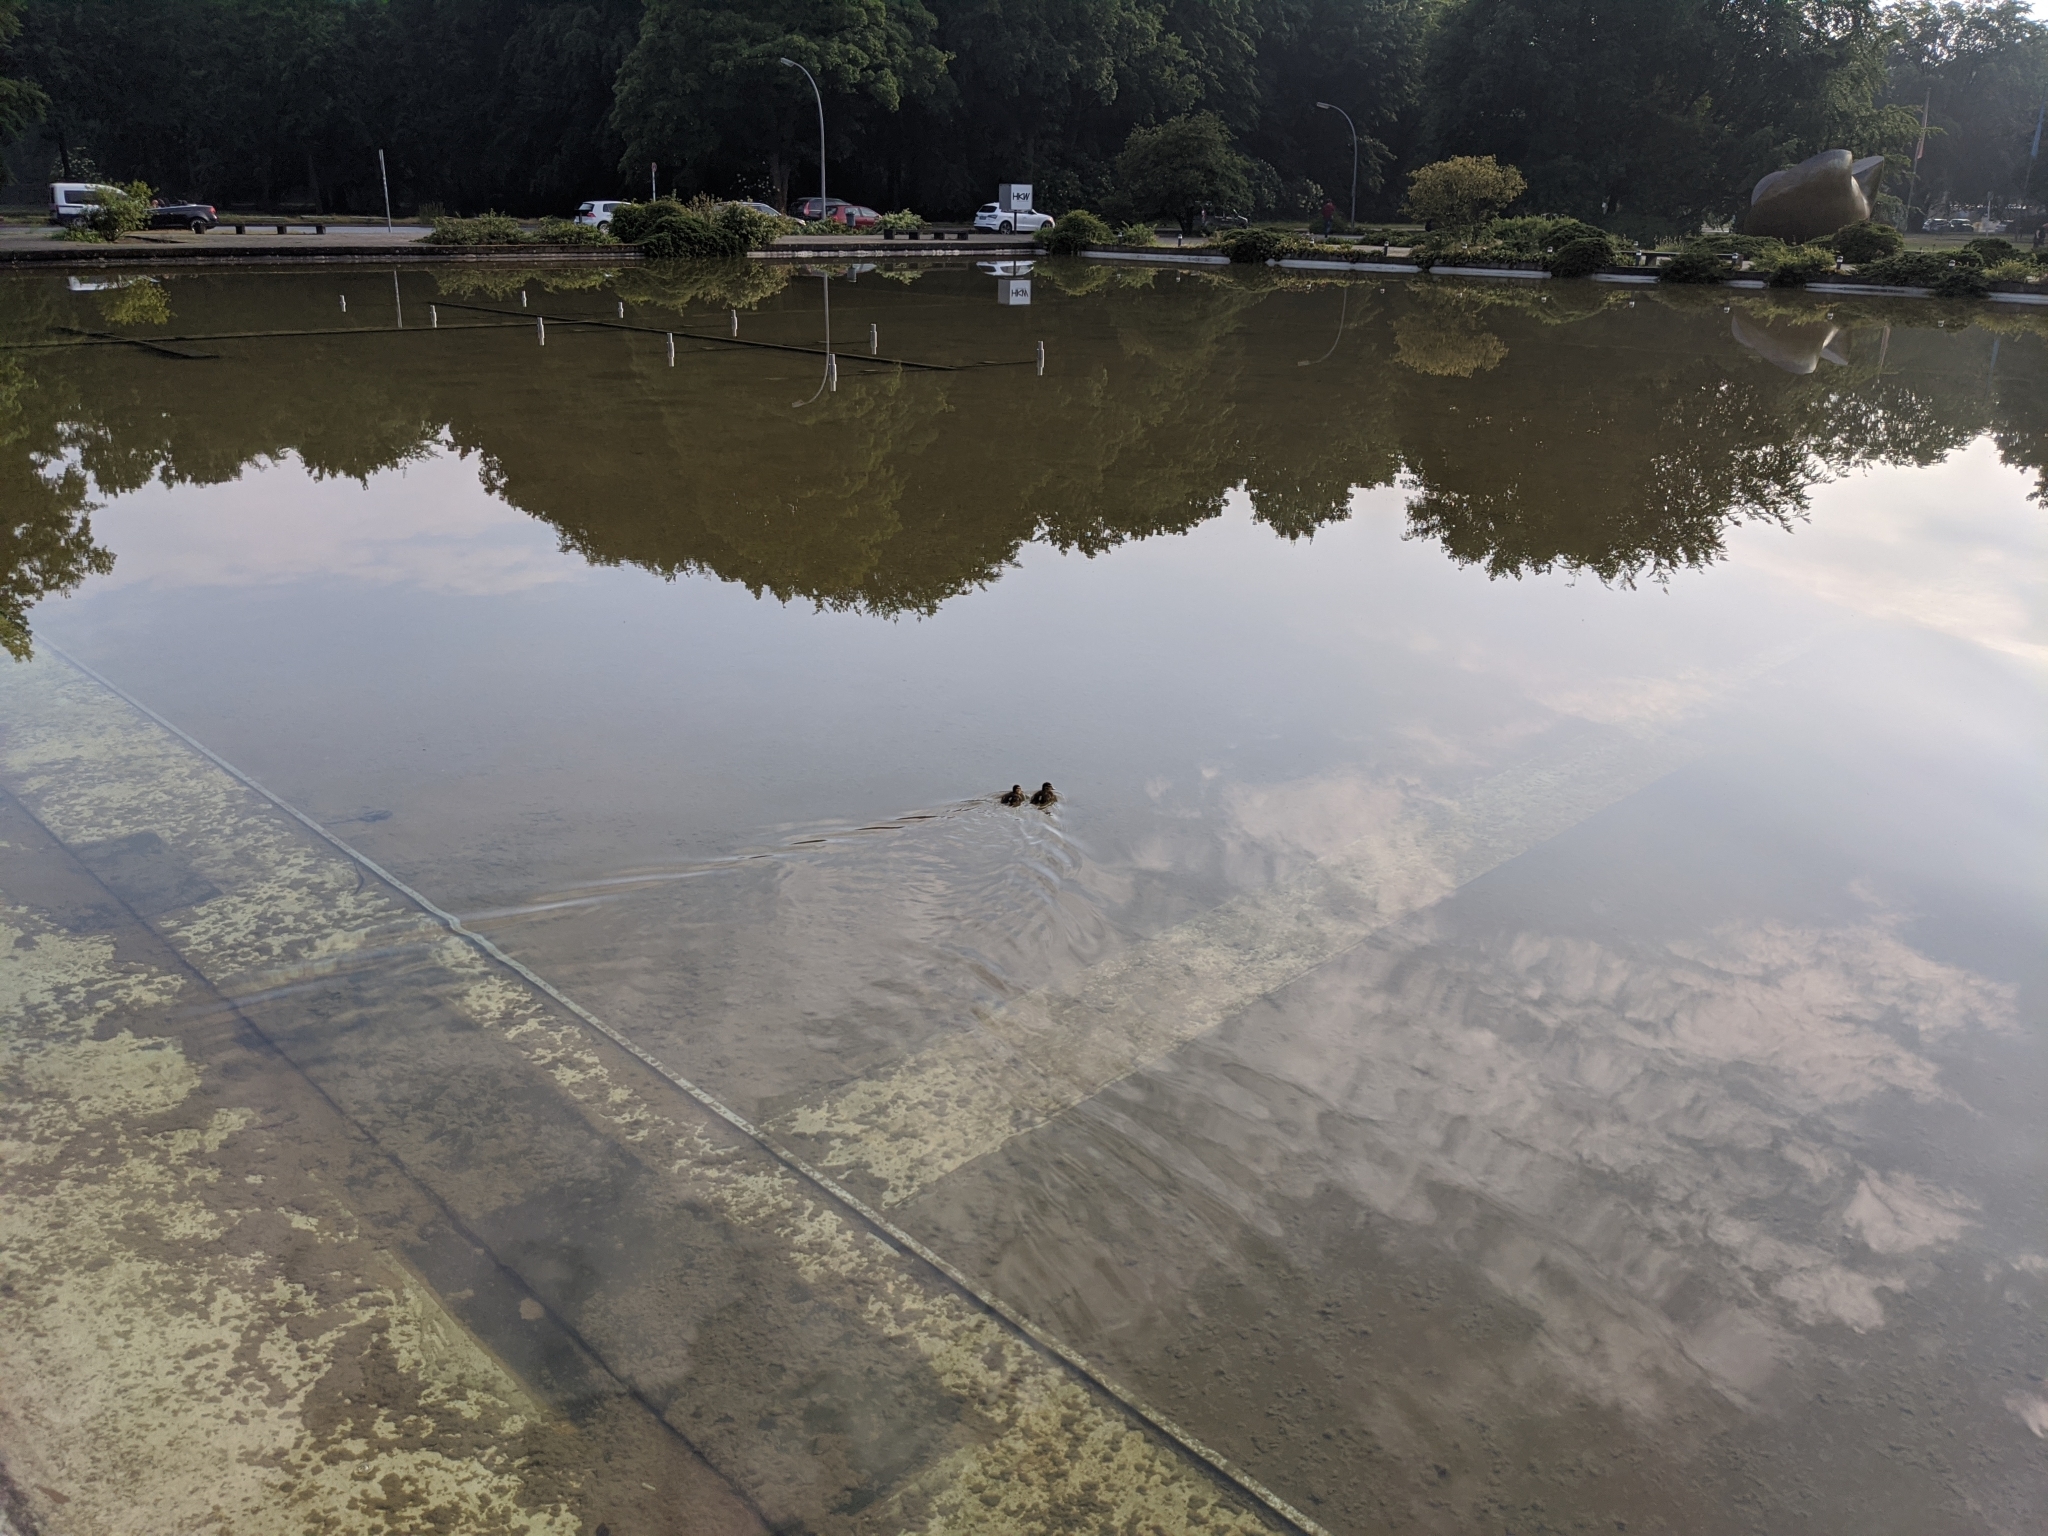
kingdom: Animalia
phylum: Chordata
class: Aves
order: Anseriformes
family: Anatidae
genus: Anas
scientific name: Anas platyrhynchos
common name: Mallard
